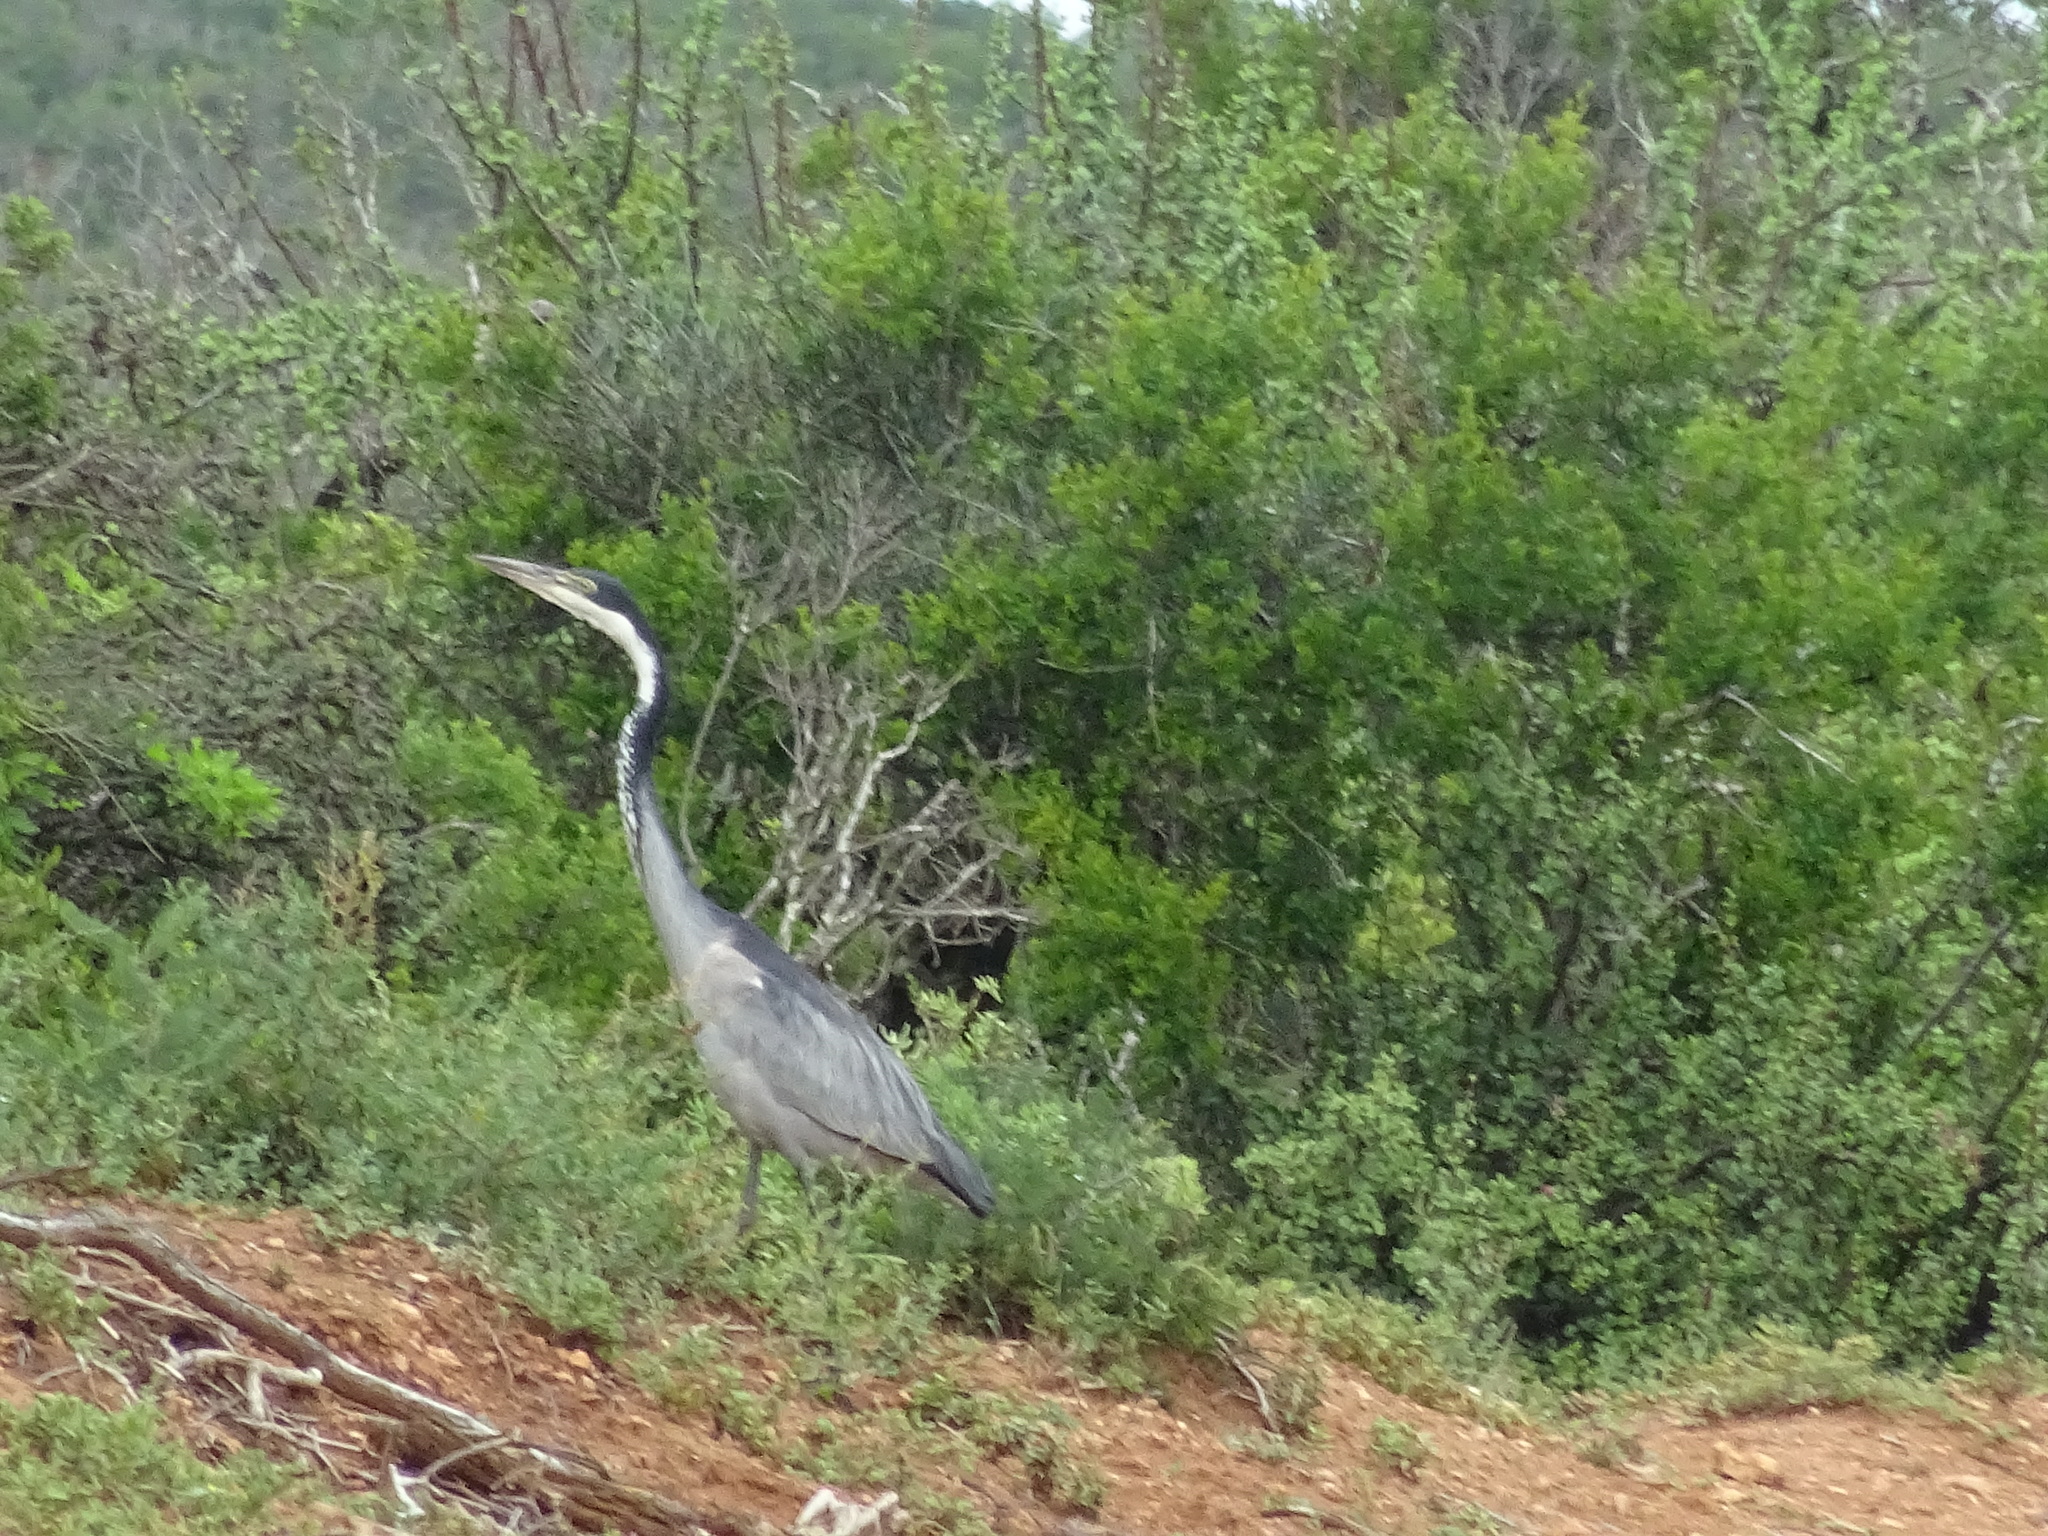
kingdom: Animalia
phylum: Chordata
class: Aves
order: Pelecaniformes
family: Ardeidae
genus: Ardea
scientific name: Ardea melanocephala
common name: Black-headed heron
